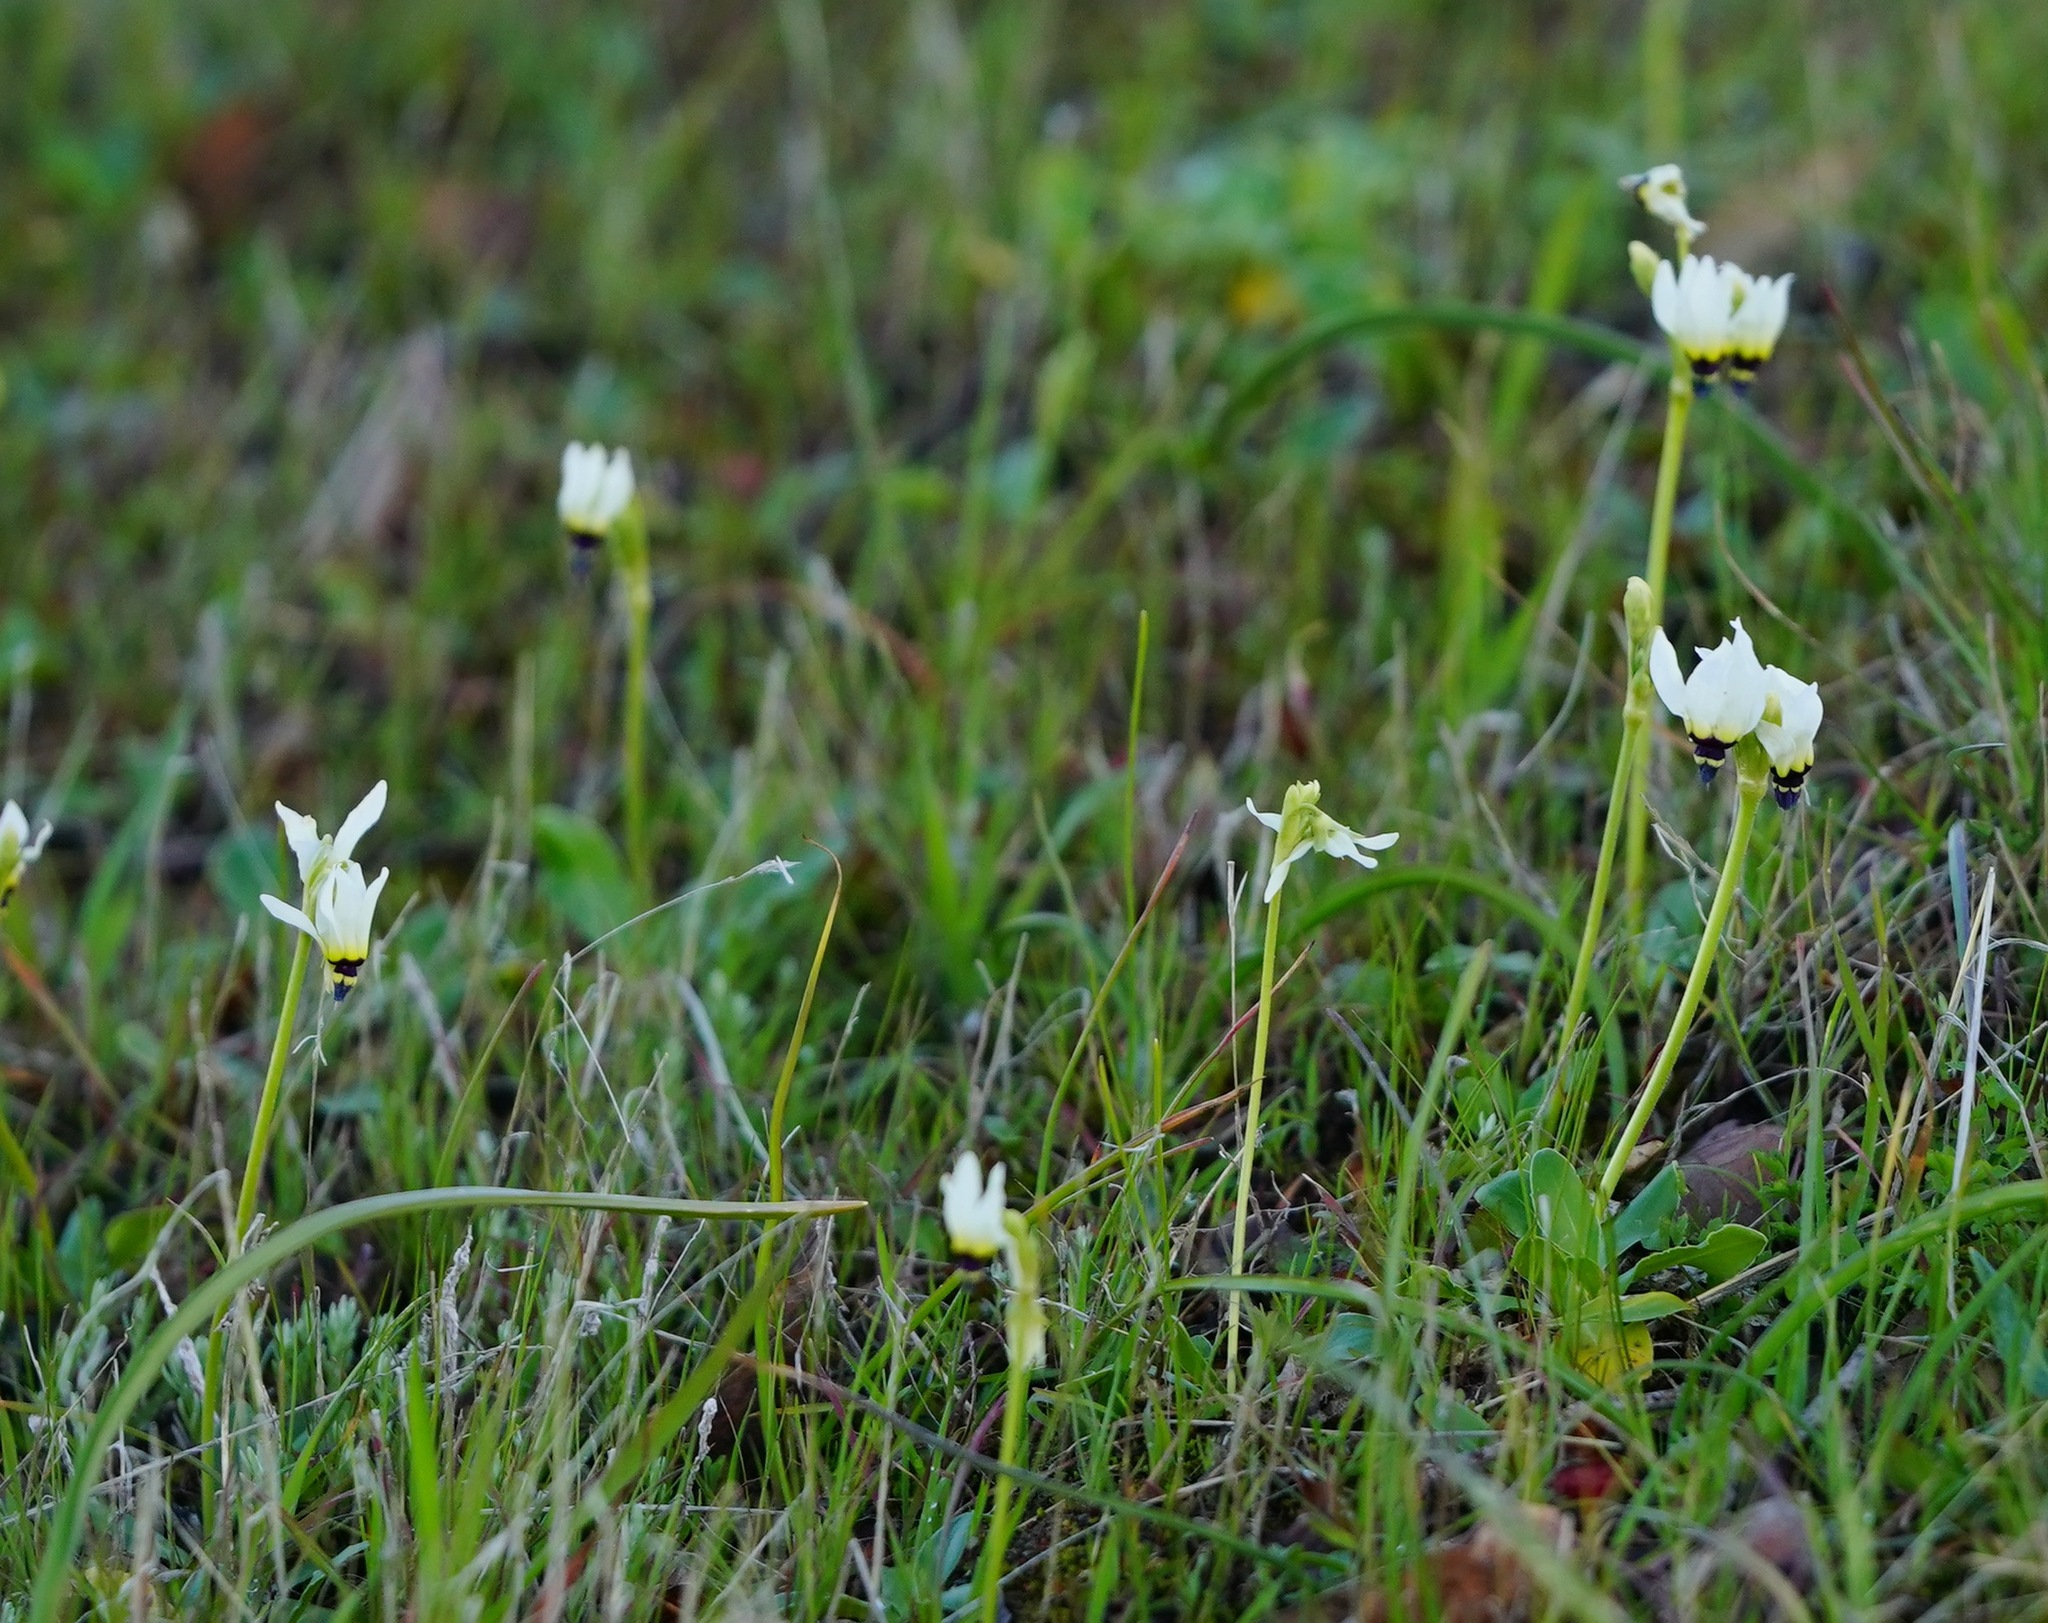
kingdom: Plantae
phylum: Tracheophyta
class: Magnoliopsida
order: Ericales
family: Primulaceae
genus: Dodecatheon
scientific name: Dodecatheon clevelandii
